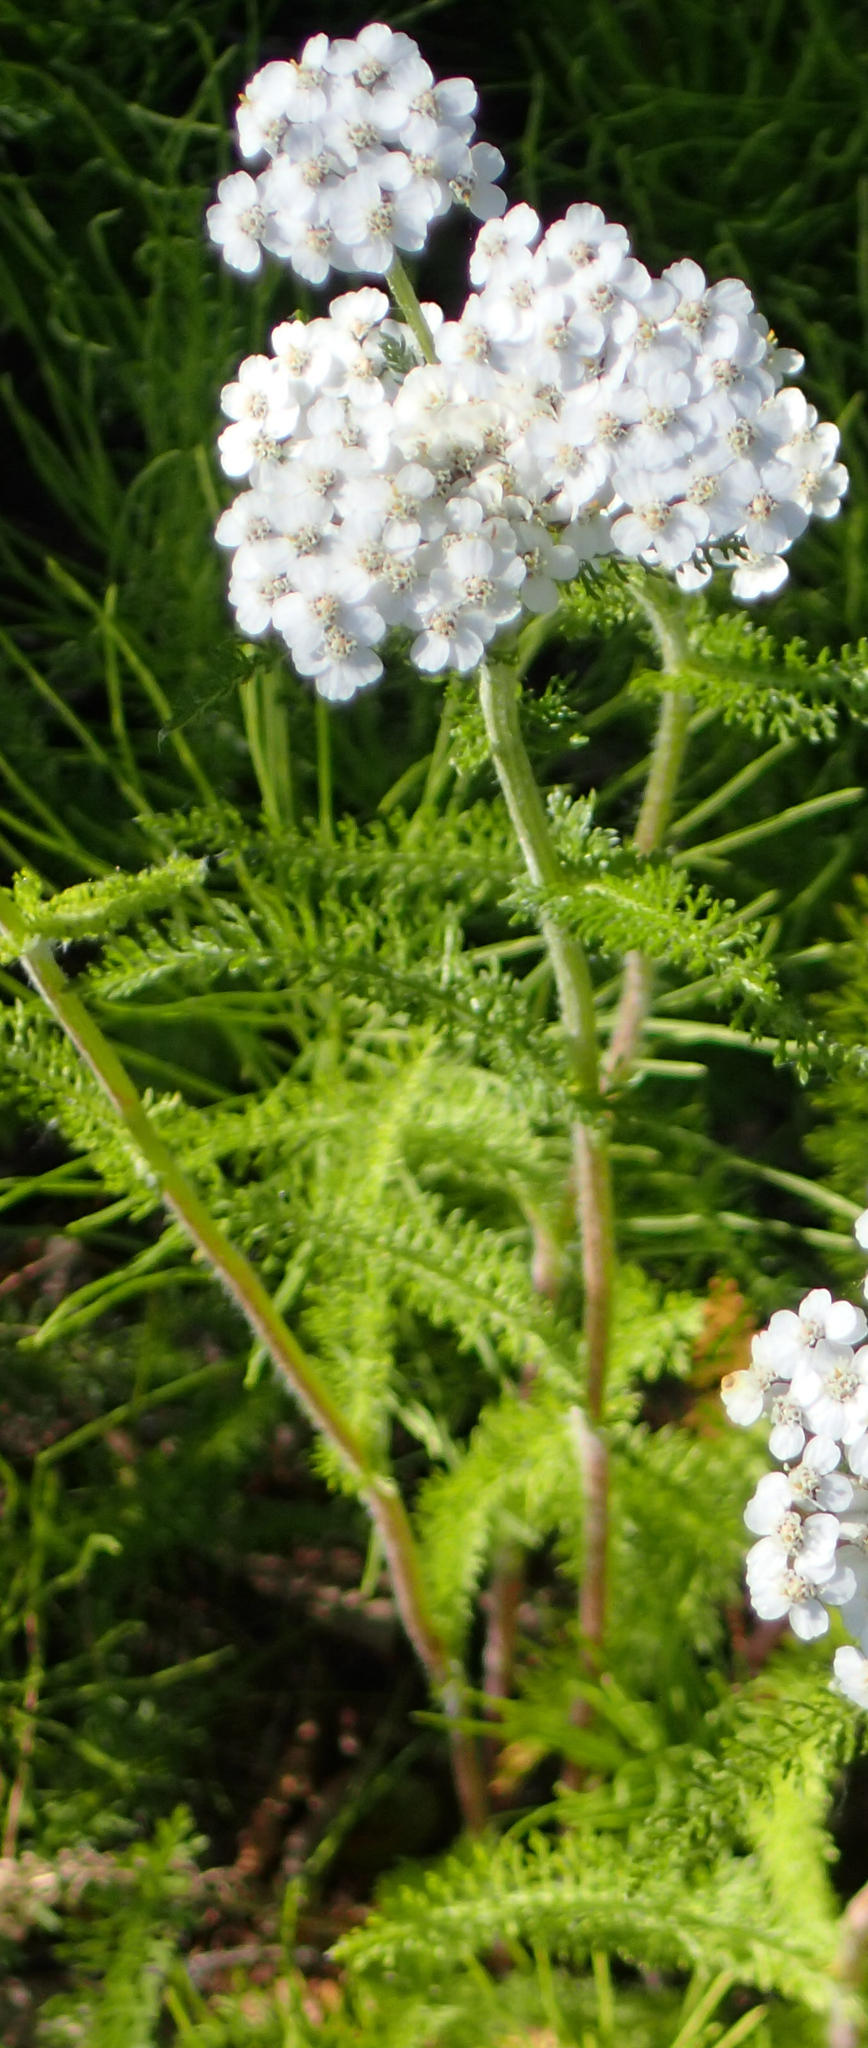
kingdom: Plantae
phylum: Tracheophyta
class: Magnoliopsida
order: Asterales
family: Asteraceae
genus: Achillea
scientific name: Achillea millefolium
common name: Yarrow
